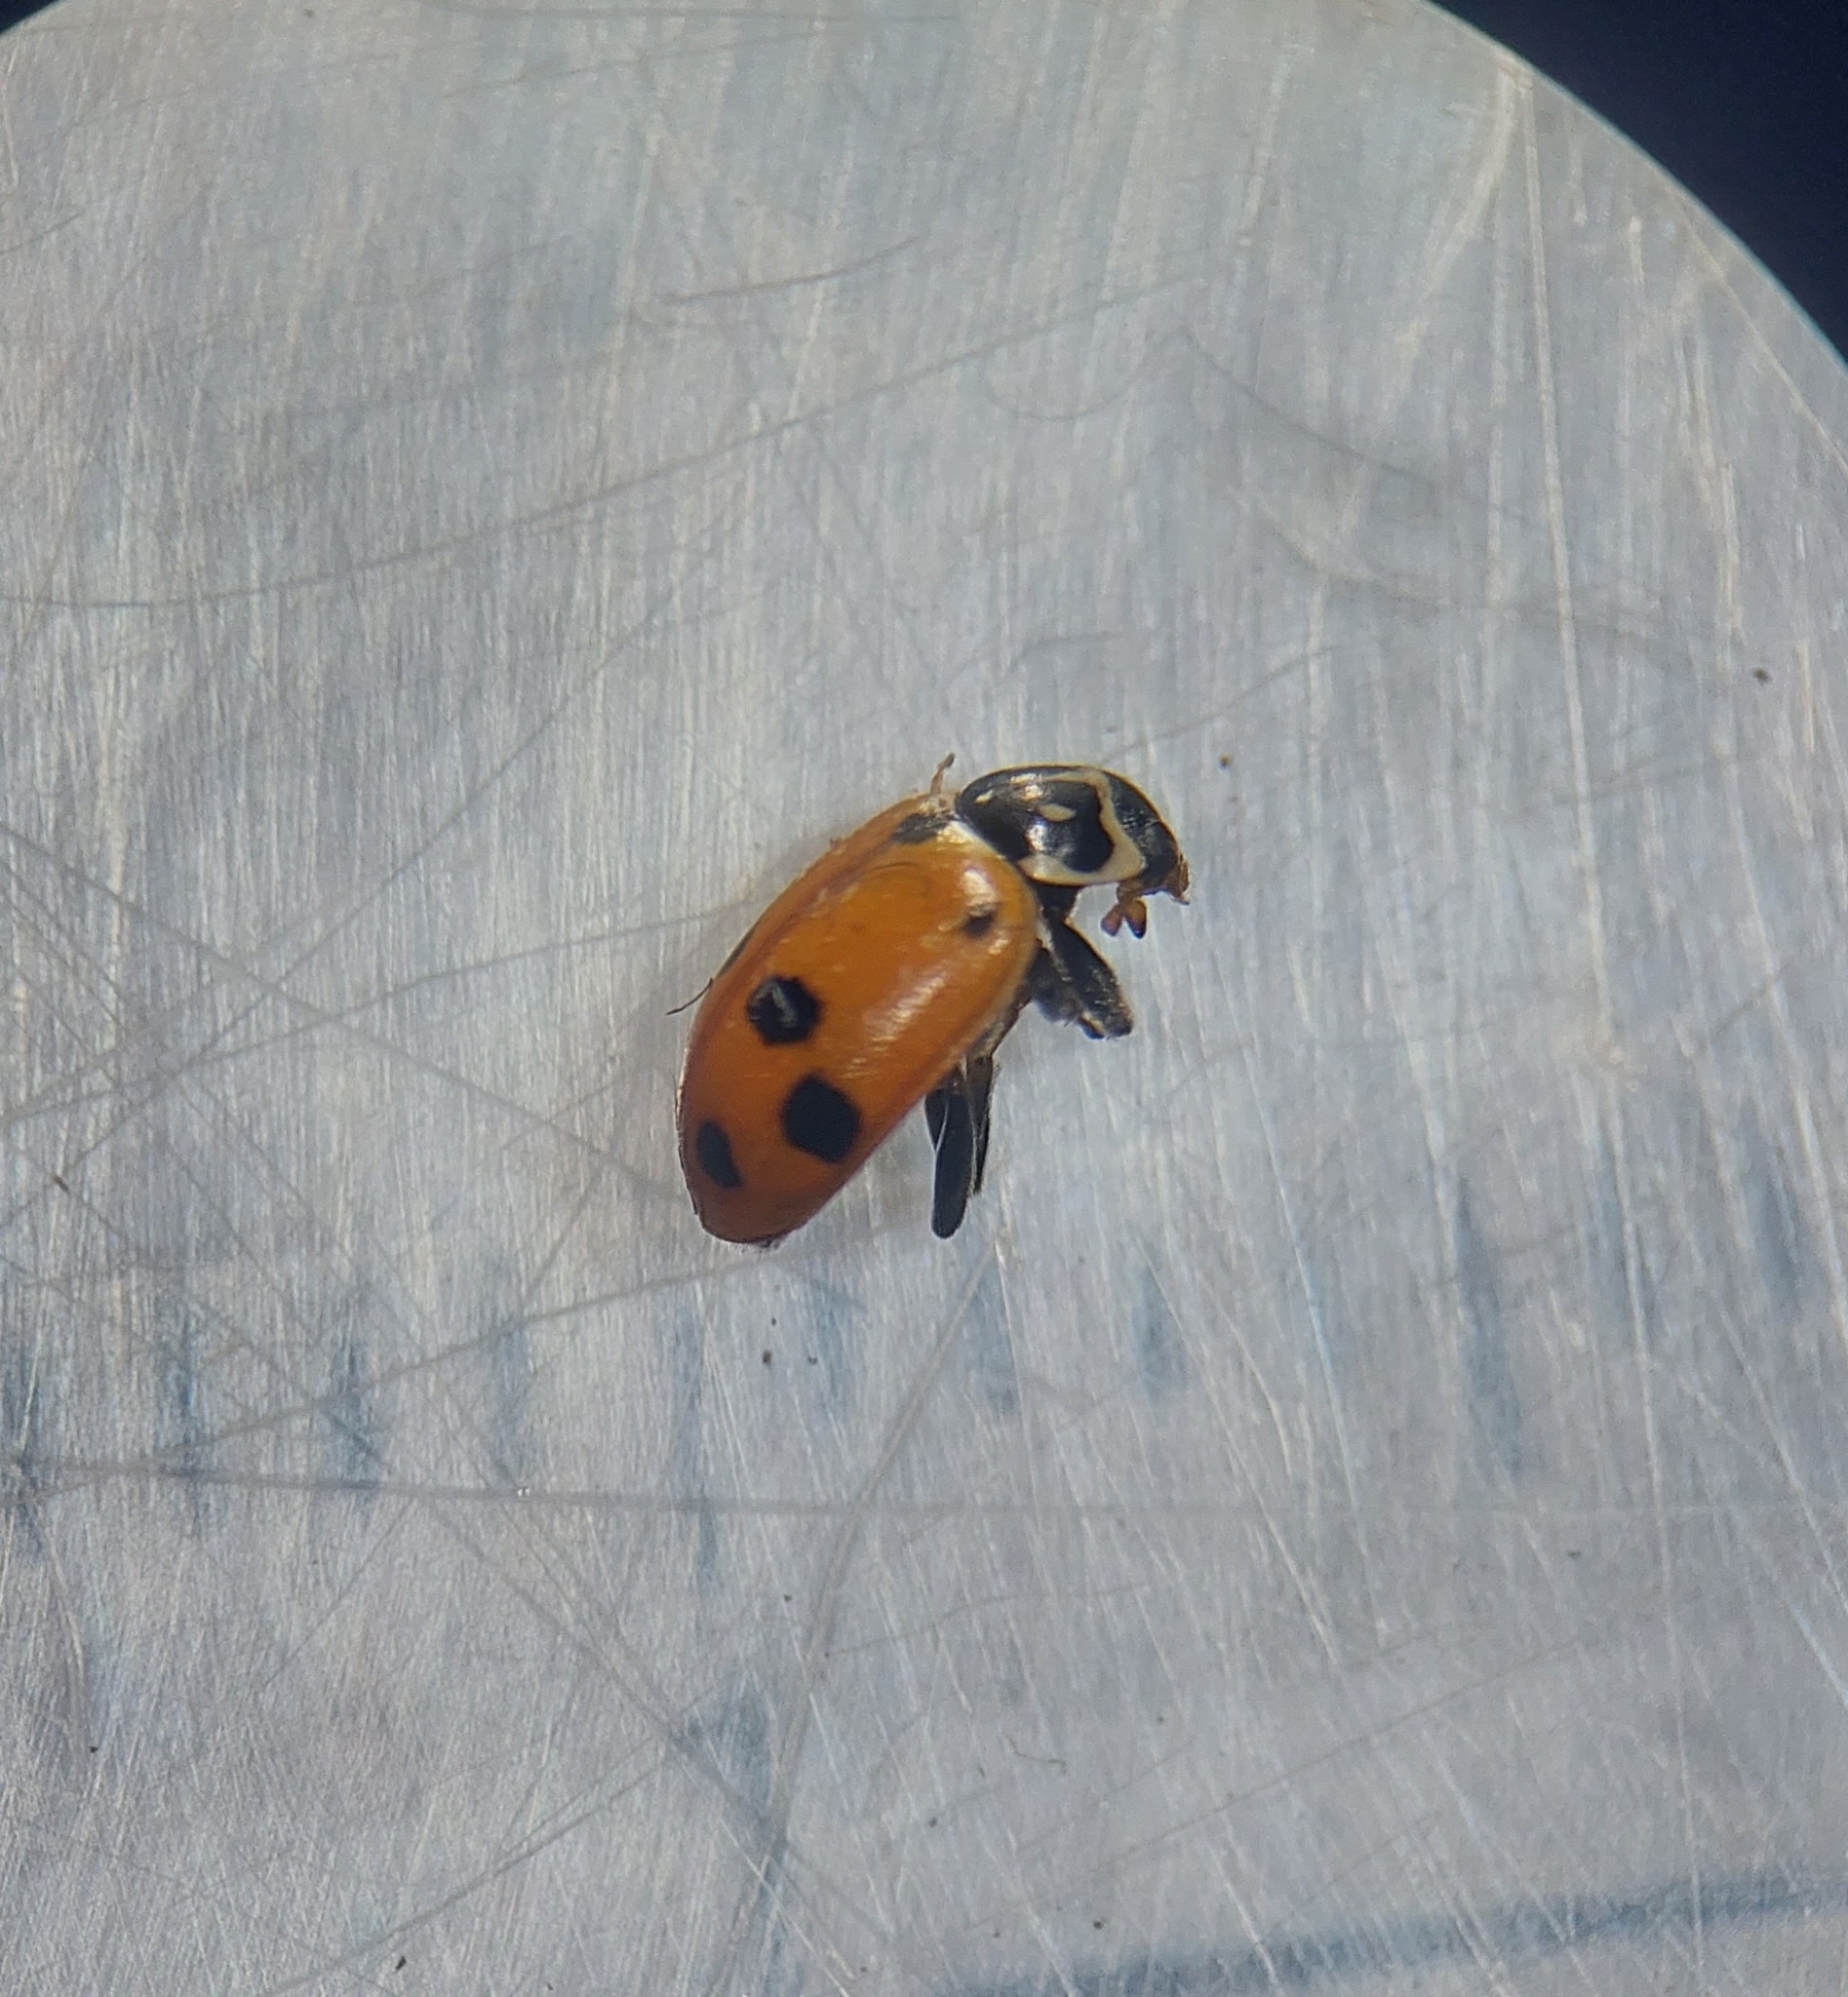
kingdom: Animalia
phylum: Arthropoda
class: Insecta
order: Coleoptera
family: Coccinellidae
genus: Hippodamia
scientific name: Hippodamia variegata
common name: Ladybird beetle
